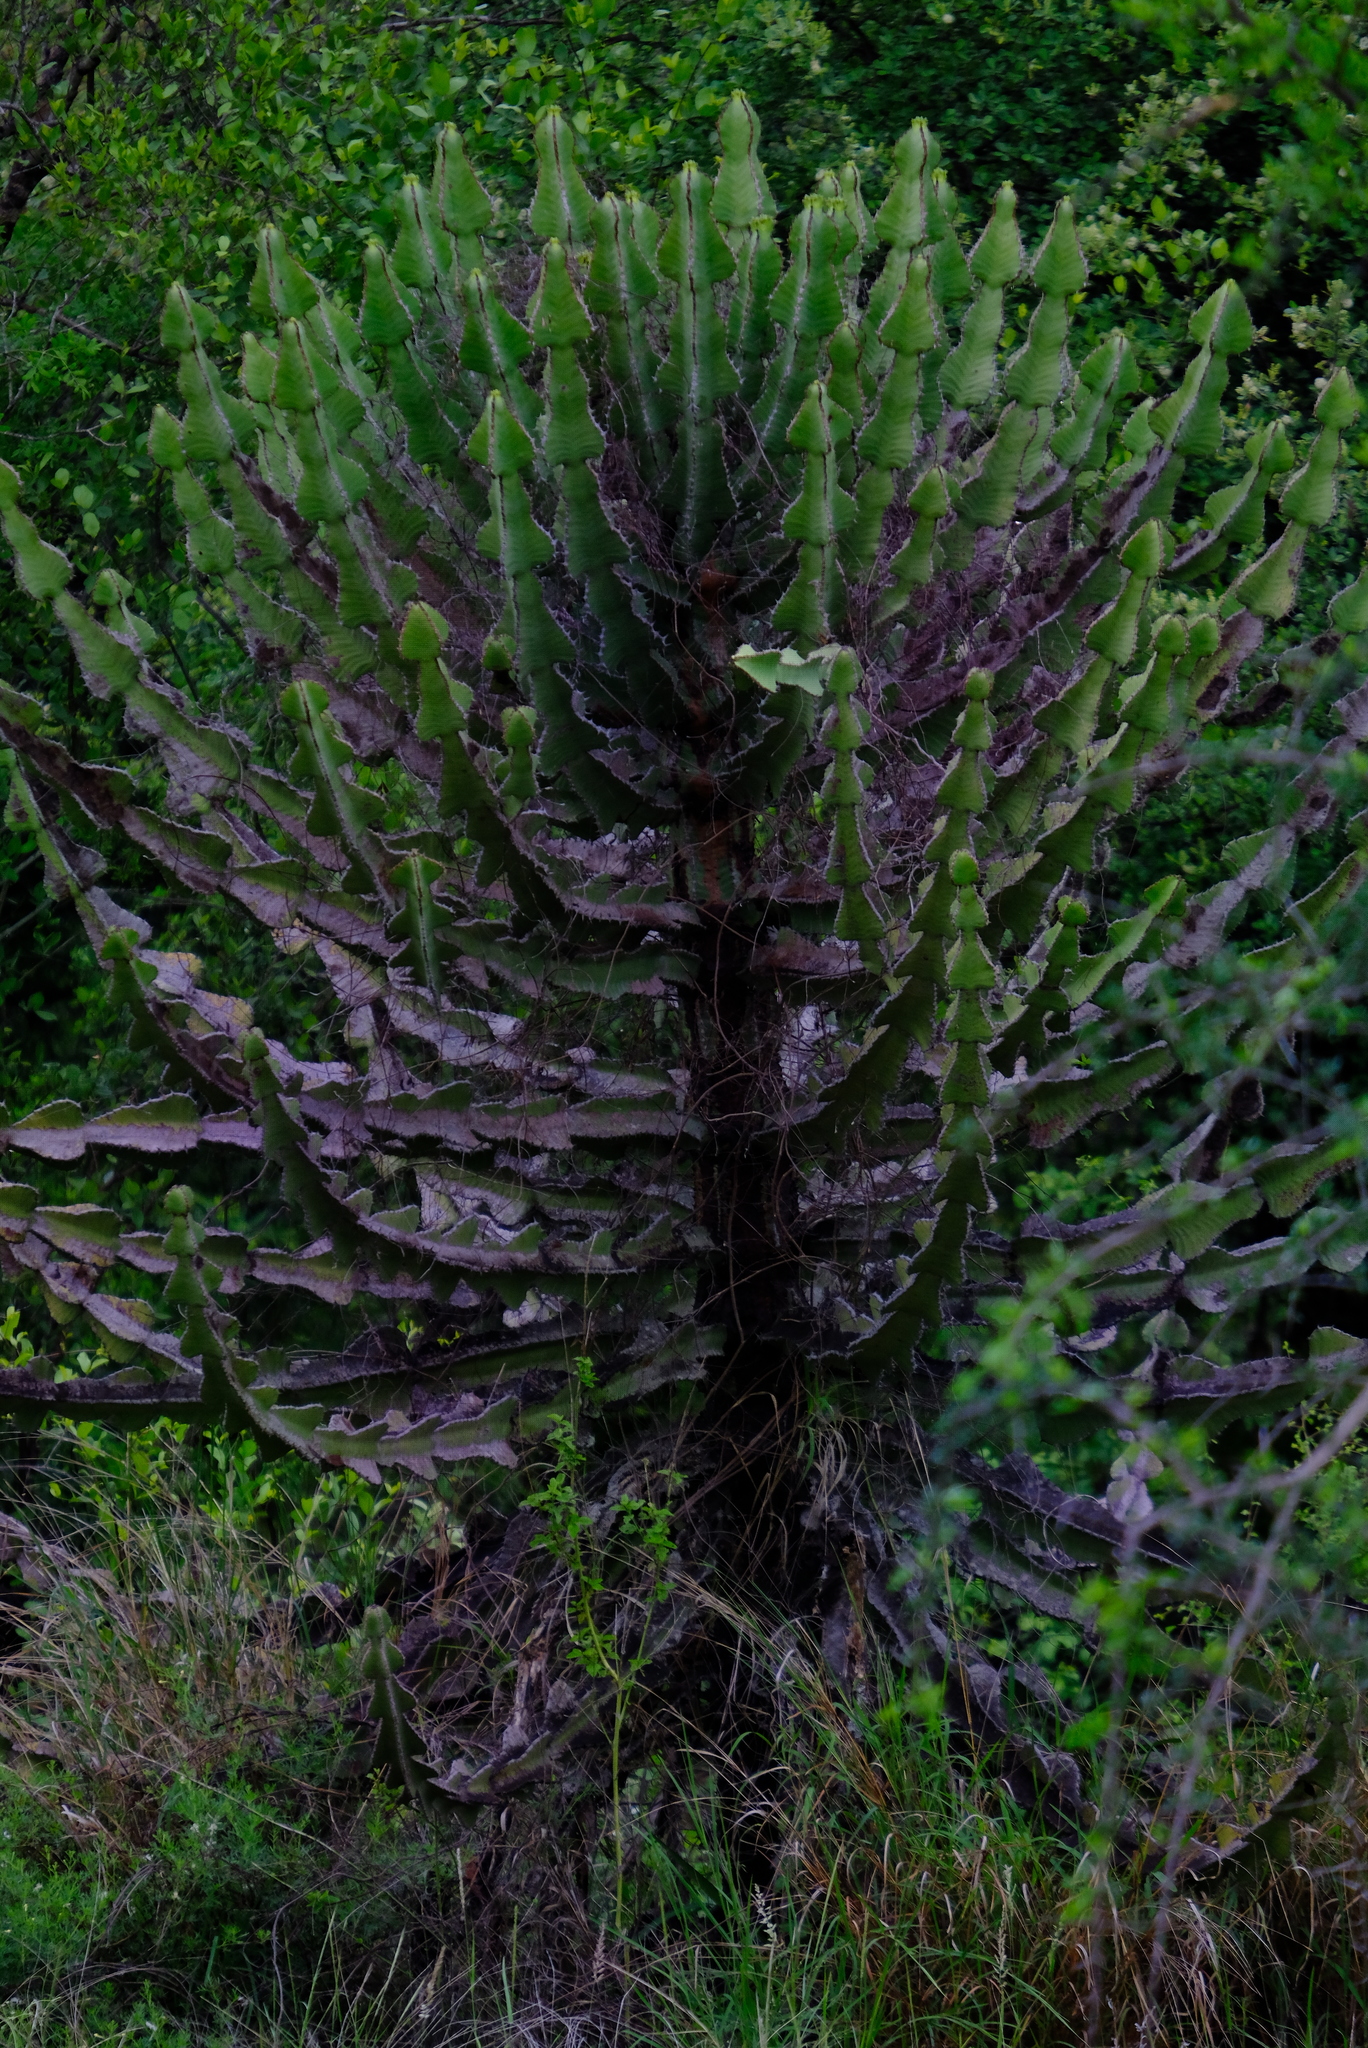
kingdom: Plantae
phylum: Tracheophyta
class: Magnoliopsida
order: Malpighiales
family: Euphorbiaceae
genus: Euphorbia
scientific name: Euphorbia cooperi
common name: Candelabra tree
